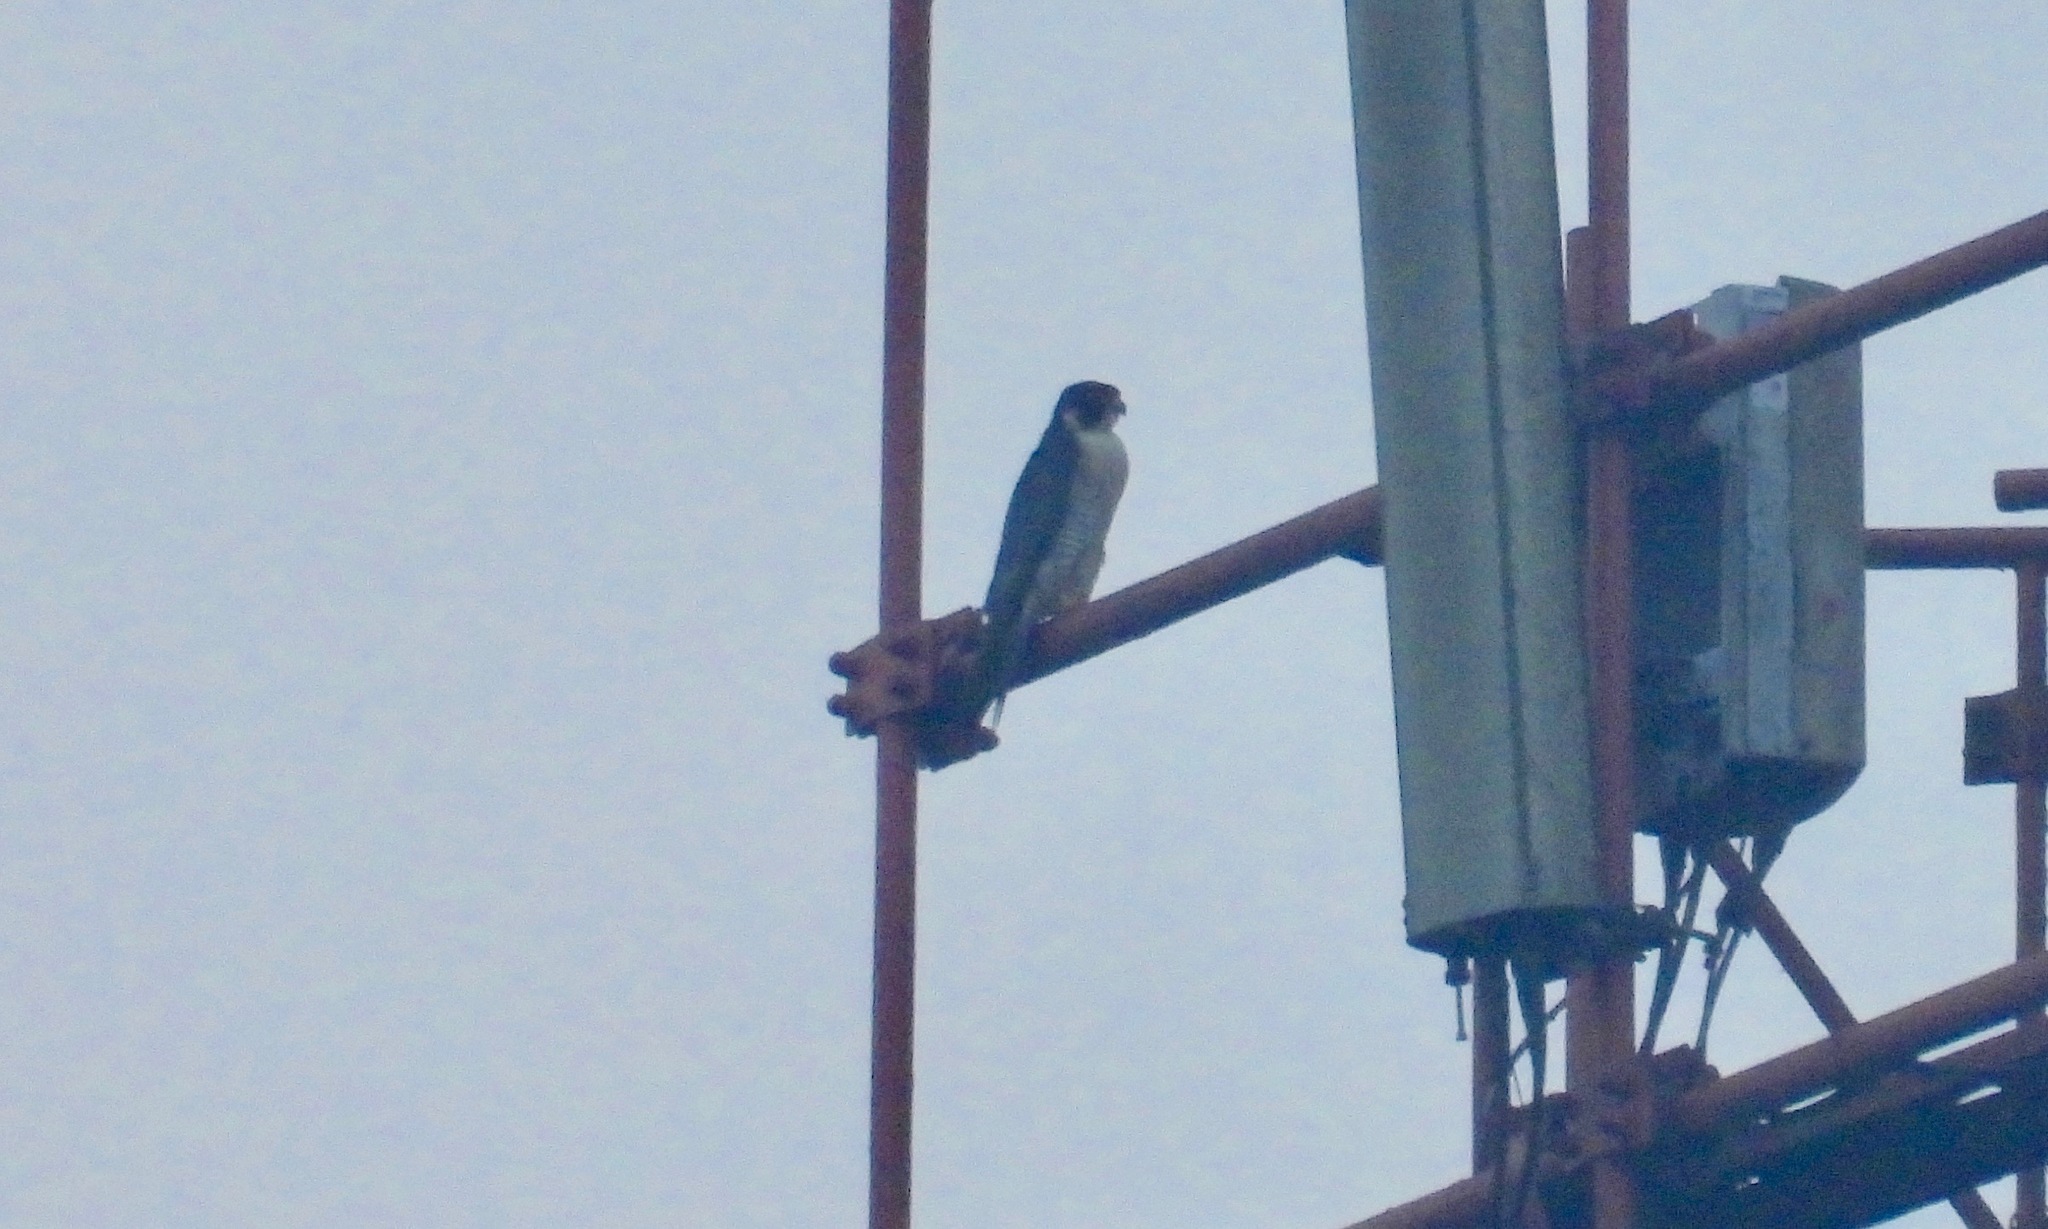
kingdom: Animalia
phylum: Chordata
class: Aves
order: Falconiformes
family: Falconidae
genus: Falco
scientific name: Falco peregrinus
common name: Peregrine falcon
